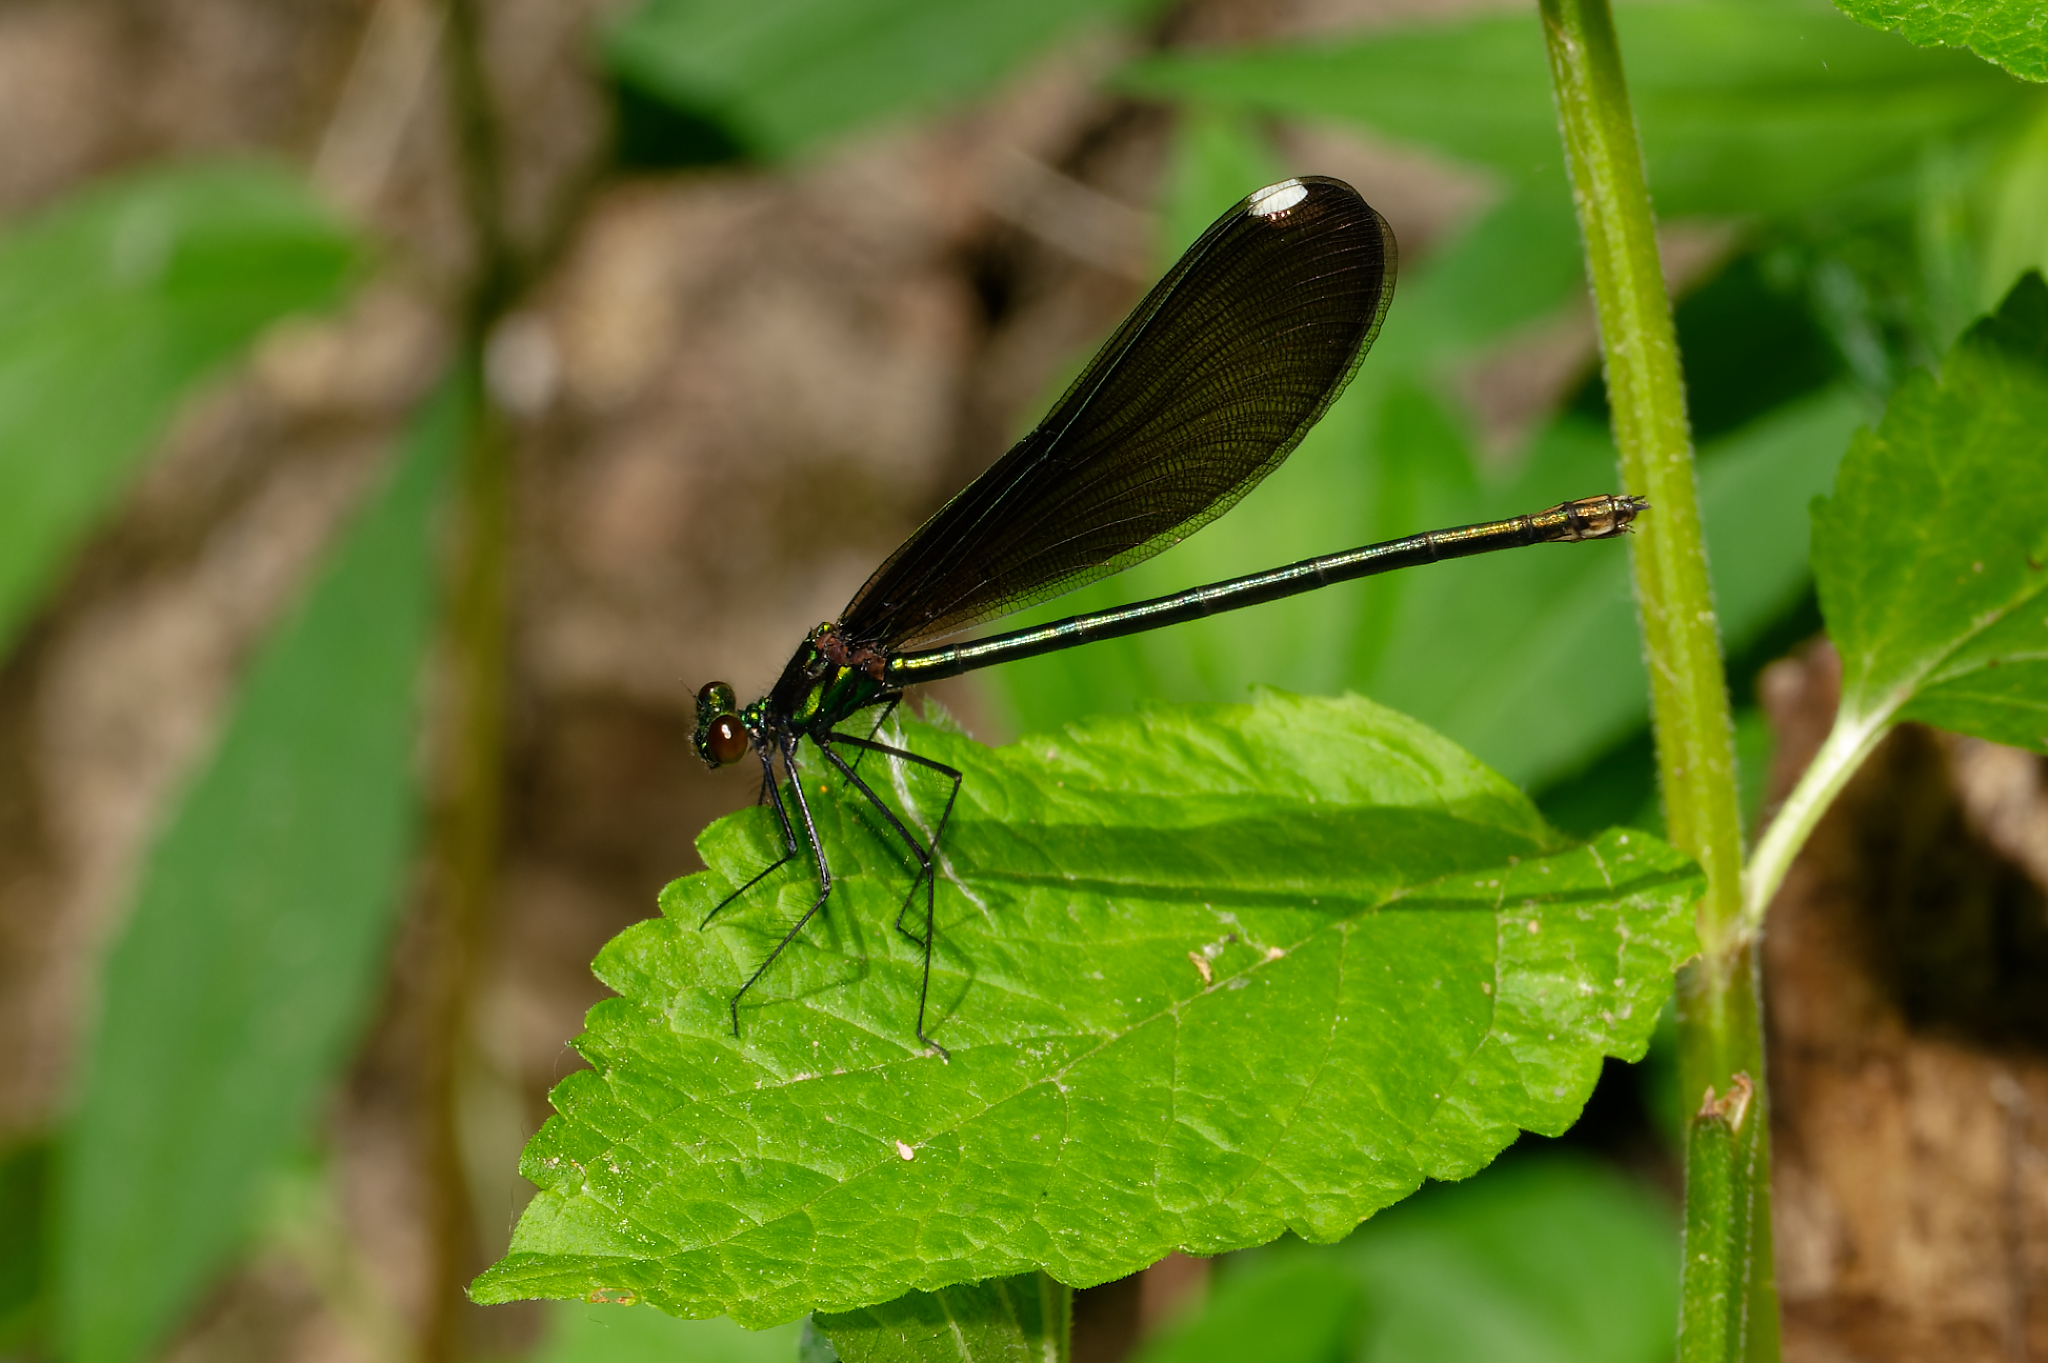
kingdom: Animalia
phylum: Arthropoda
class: Insecta
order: Odonata
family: Calopterygidae
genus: Calopteryx
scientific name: Calopteryx maculata
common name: Ebony jewelwing
